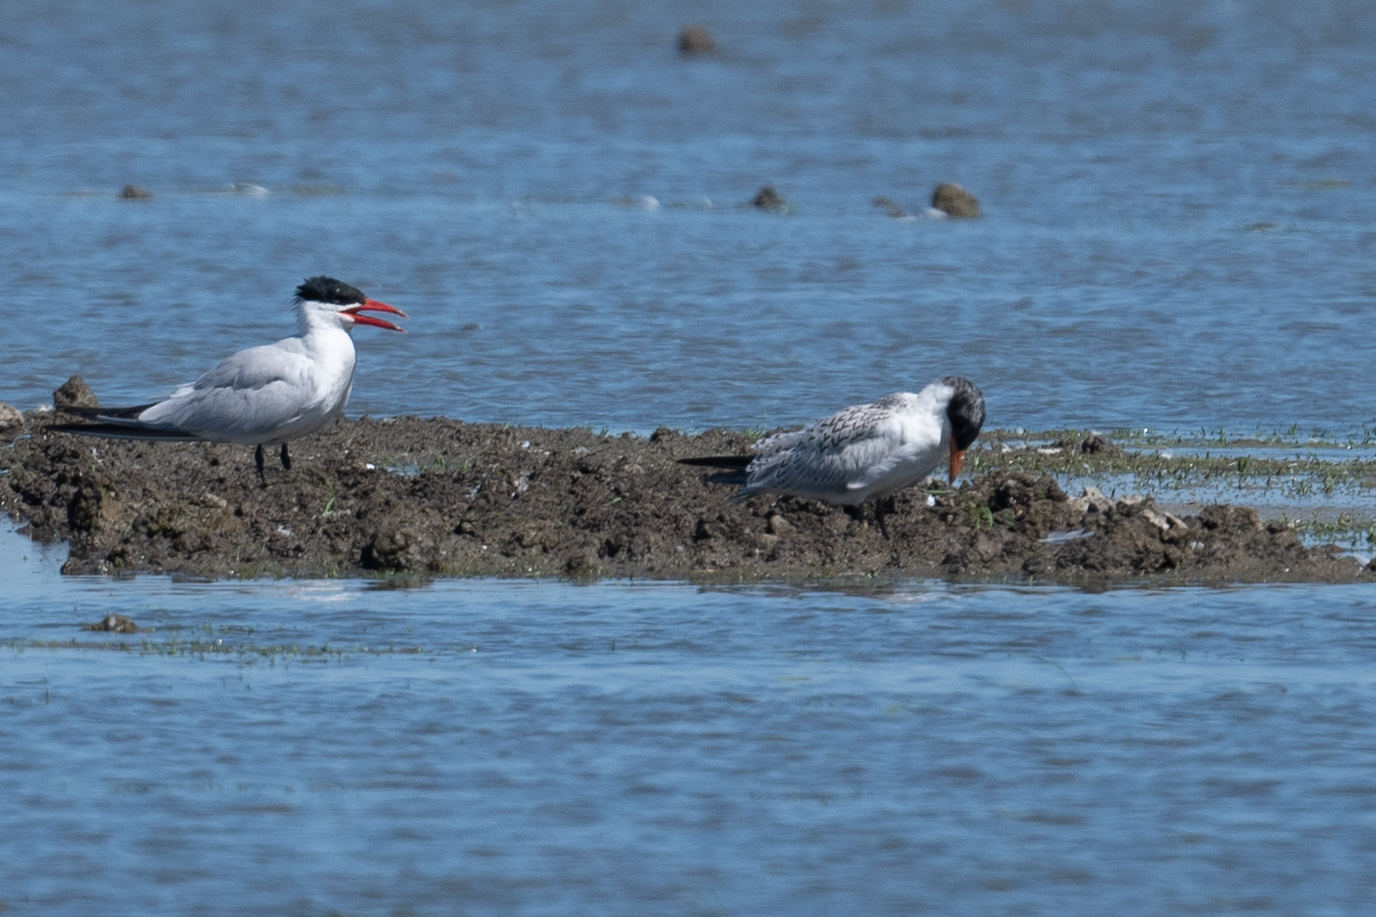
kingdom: Animalia
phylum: Chordata
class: Aves
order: Charadriiformes
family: Laridae
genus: Hydroprogne
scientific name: Hydroprogne caspia
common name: Caspian tern
